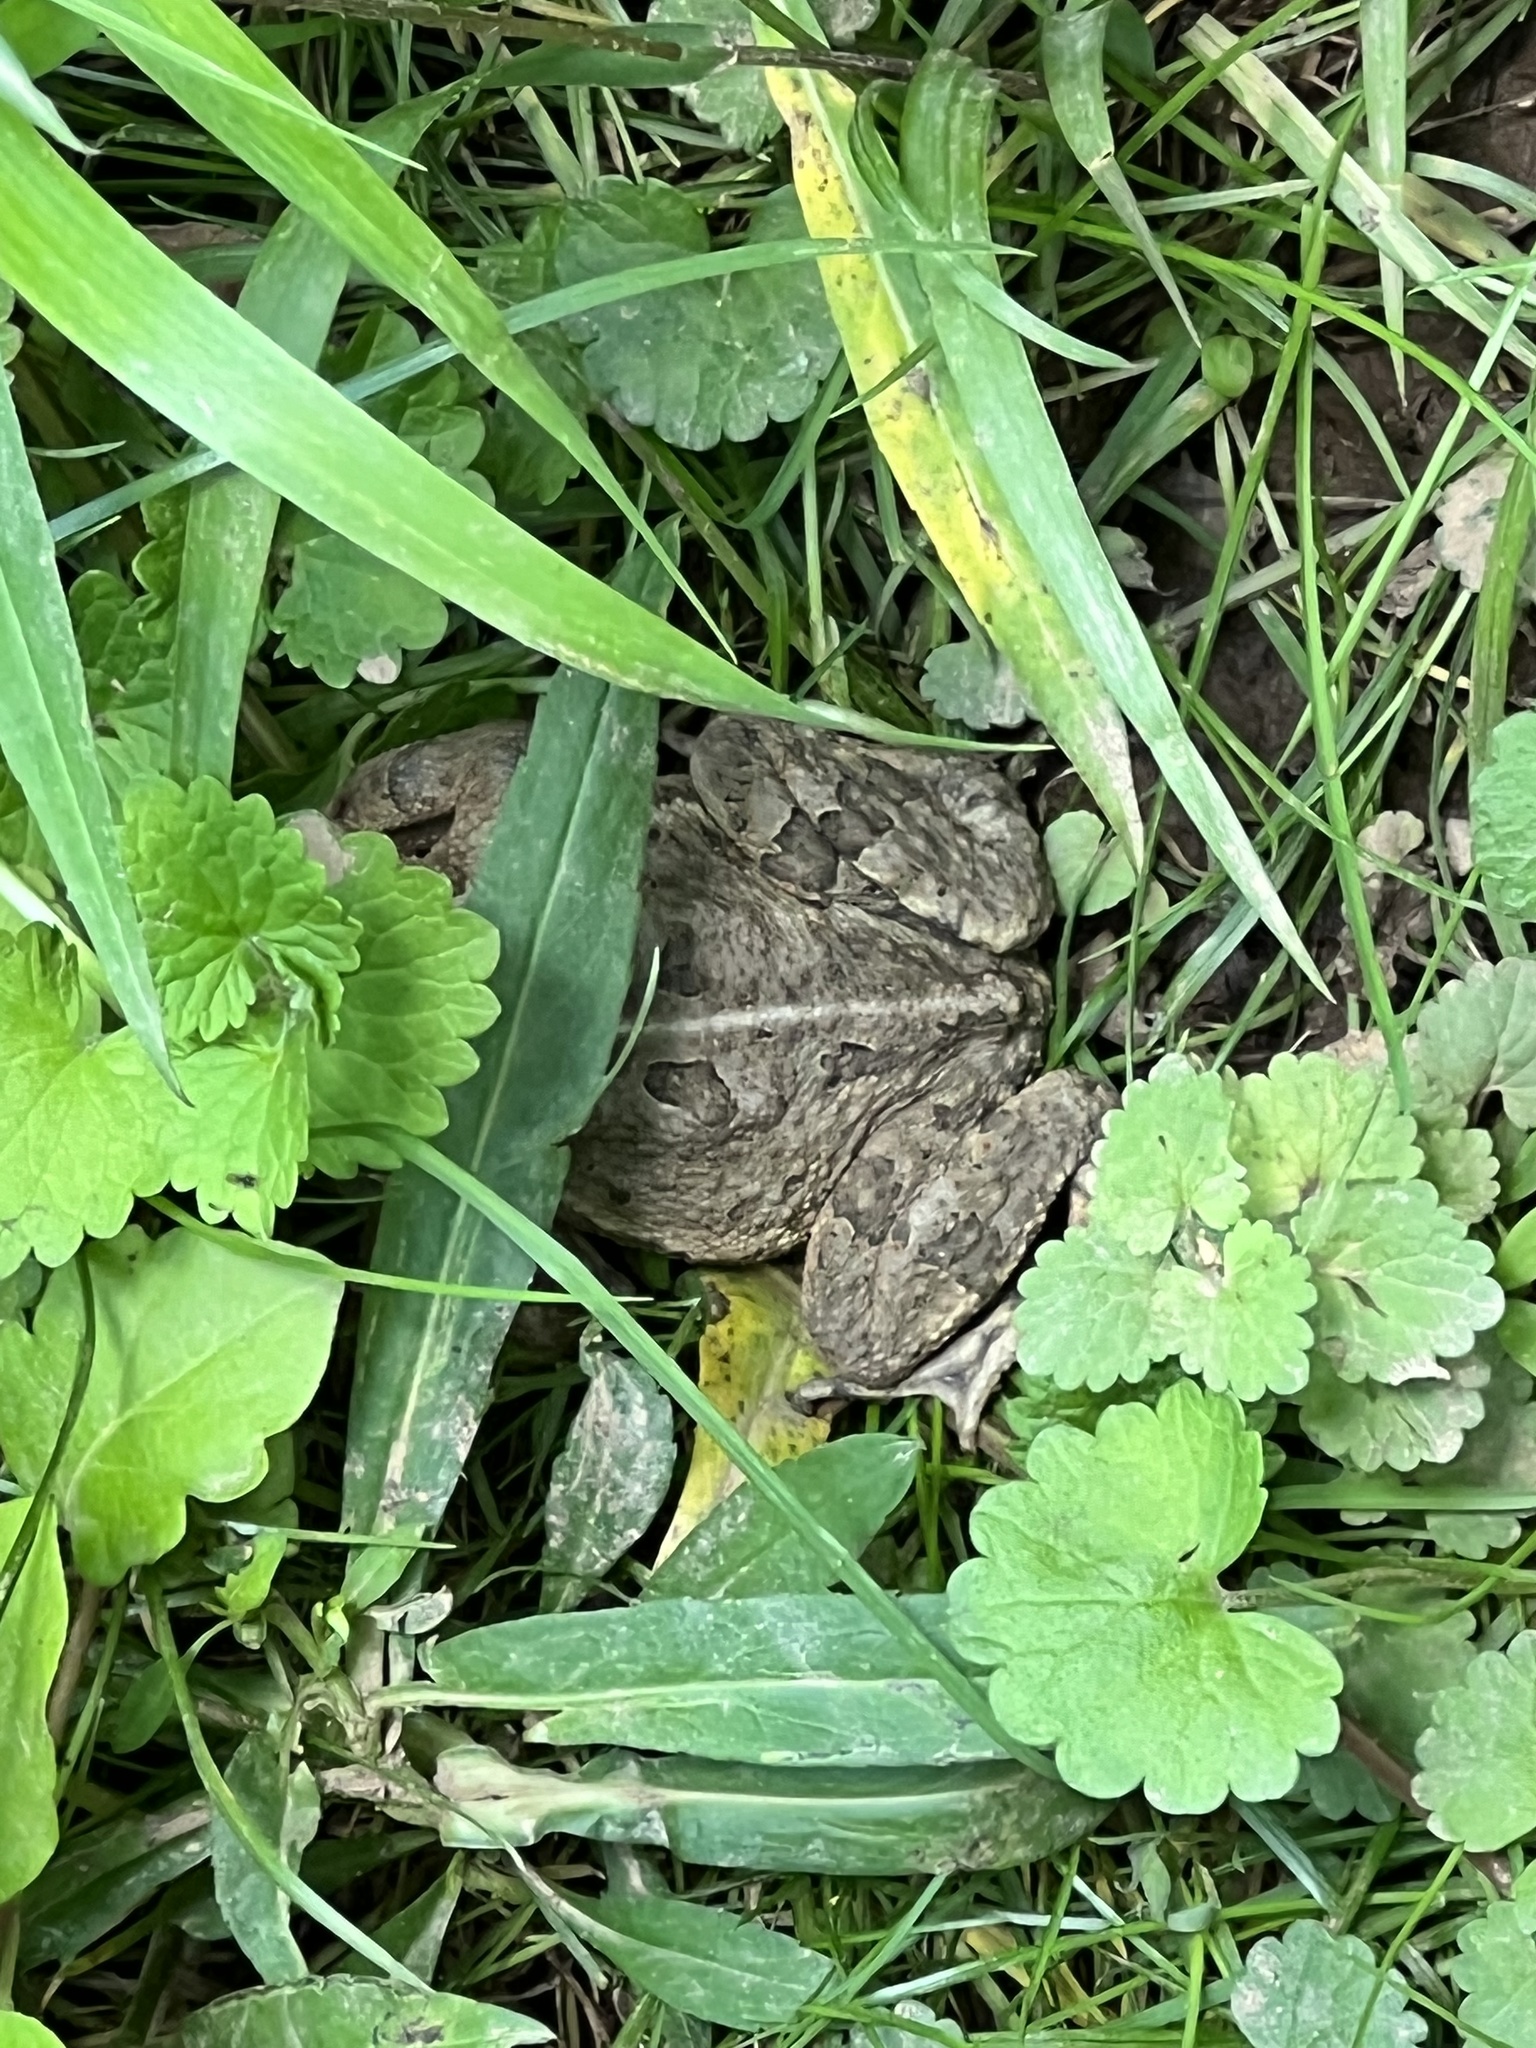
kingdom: Animalia
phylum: Chordata
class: Amphibia
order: Anura
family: Bufonidae
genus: Anaxyrus
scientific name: Anaxyrus fowleri
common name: Fowler's toad
